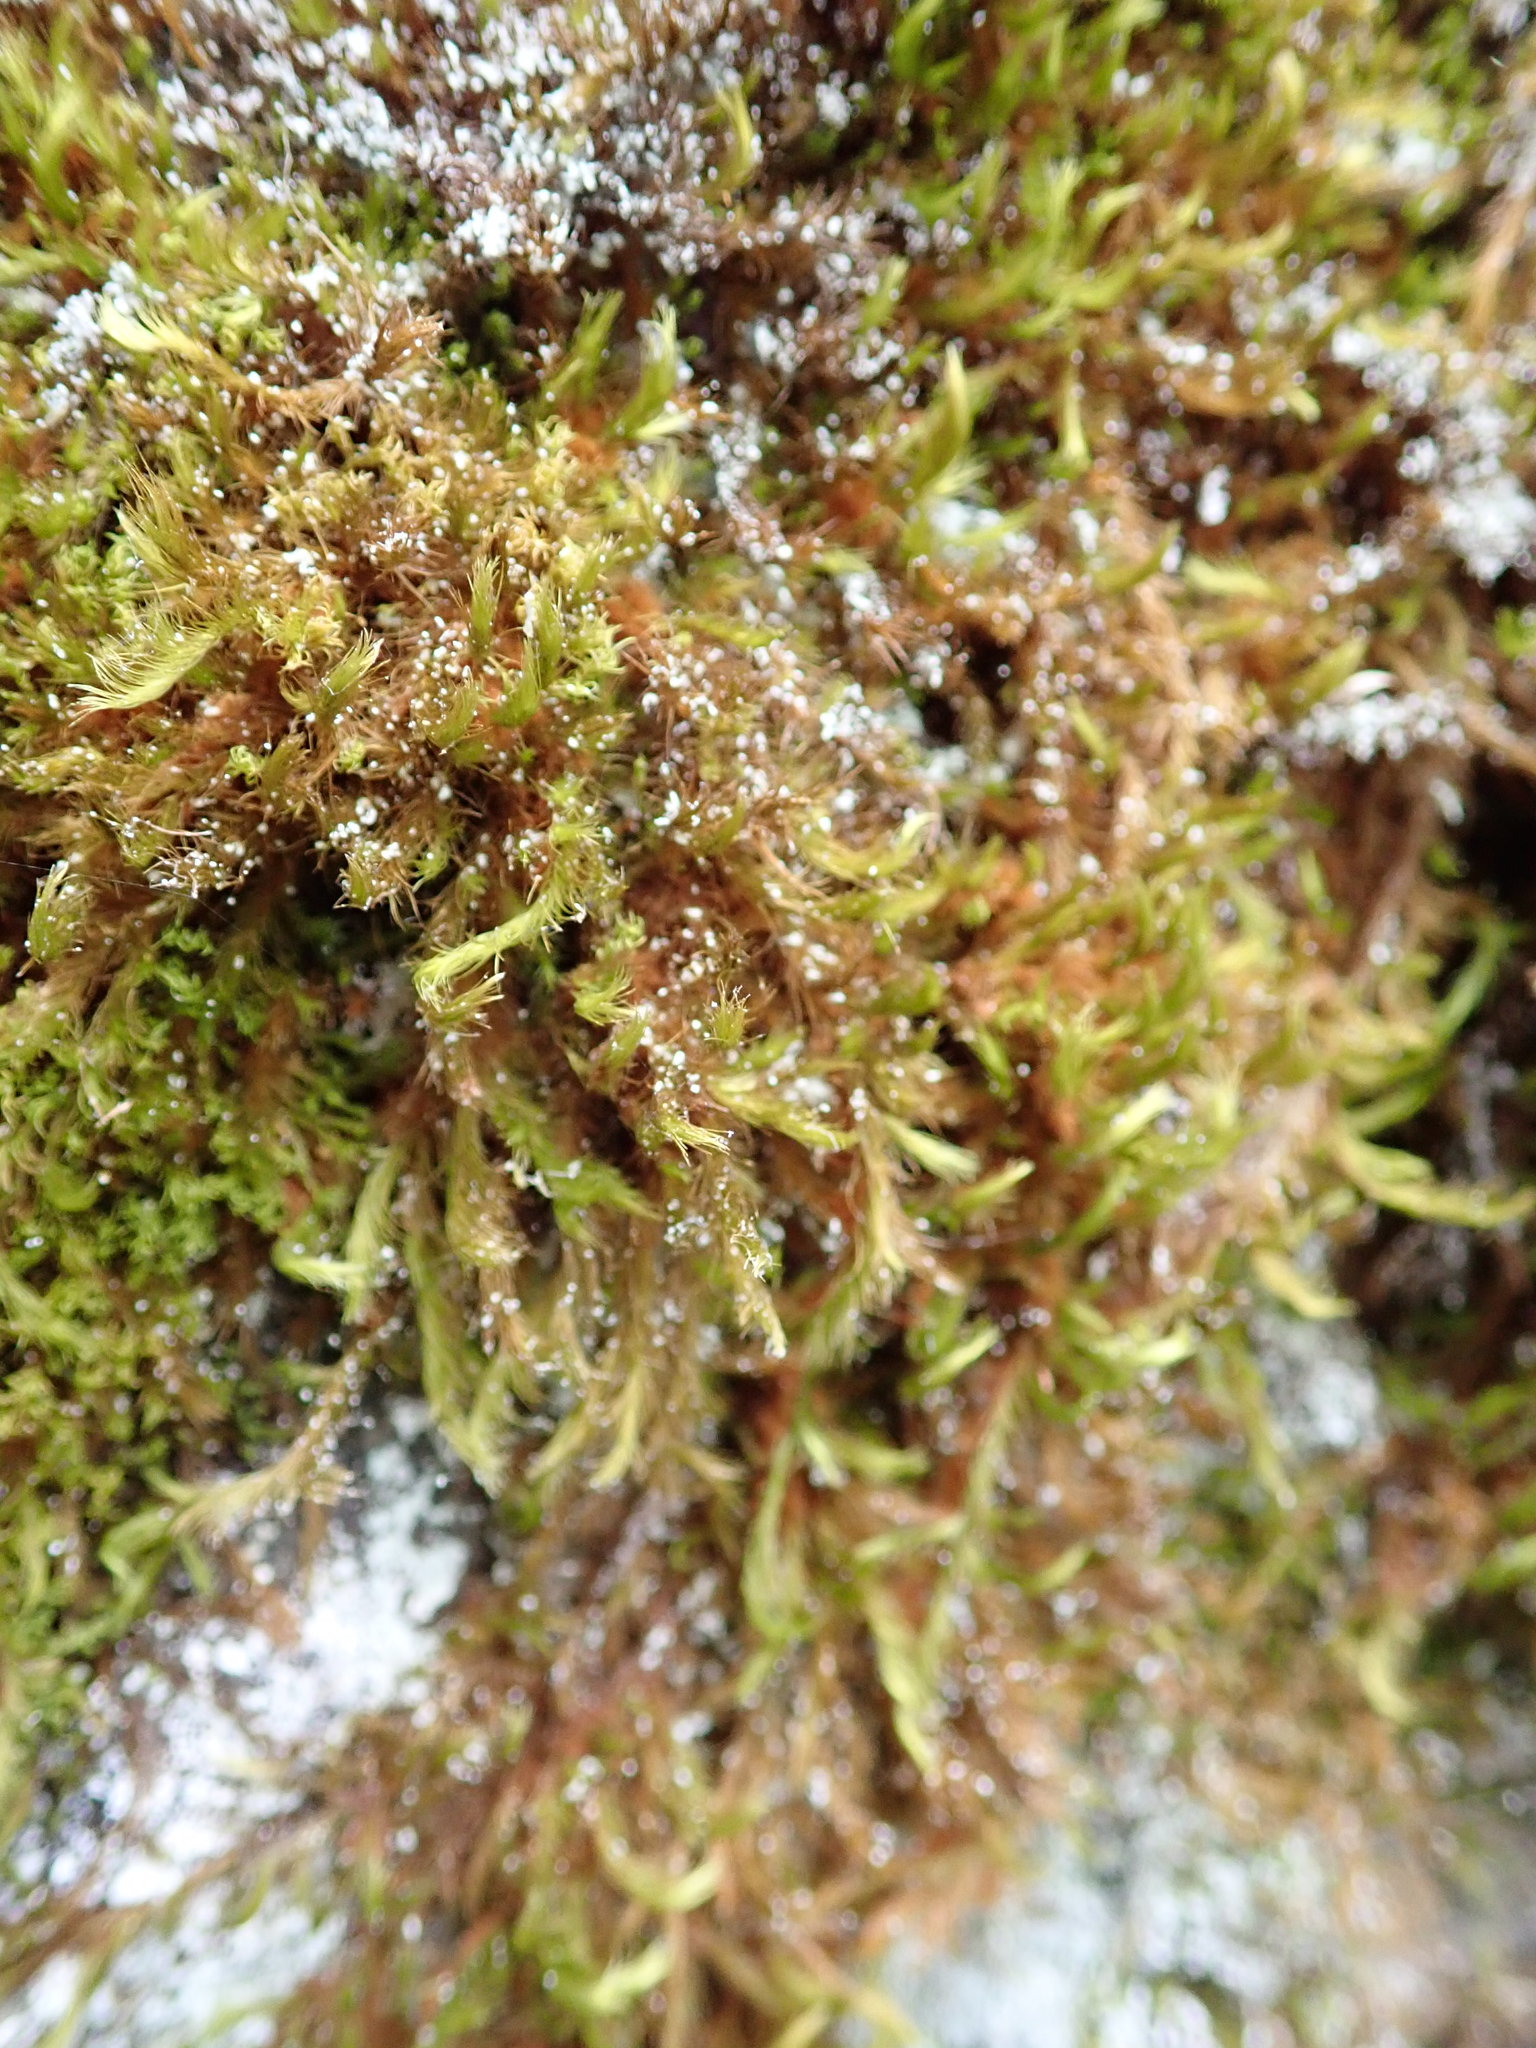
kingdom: Plantae
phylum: Bryophyta
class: Bryopsida
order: Bartramiales
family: Bartramiaceae
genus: Anacolia
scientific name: Anacolia menziesii
